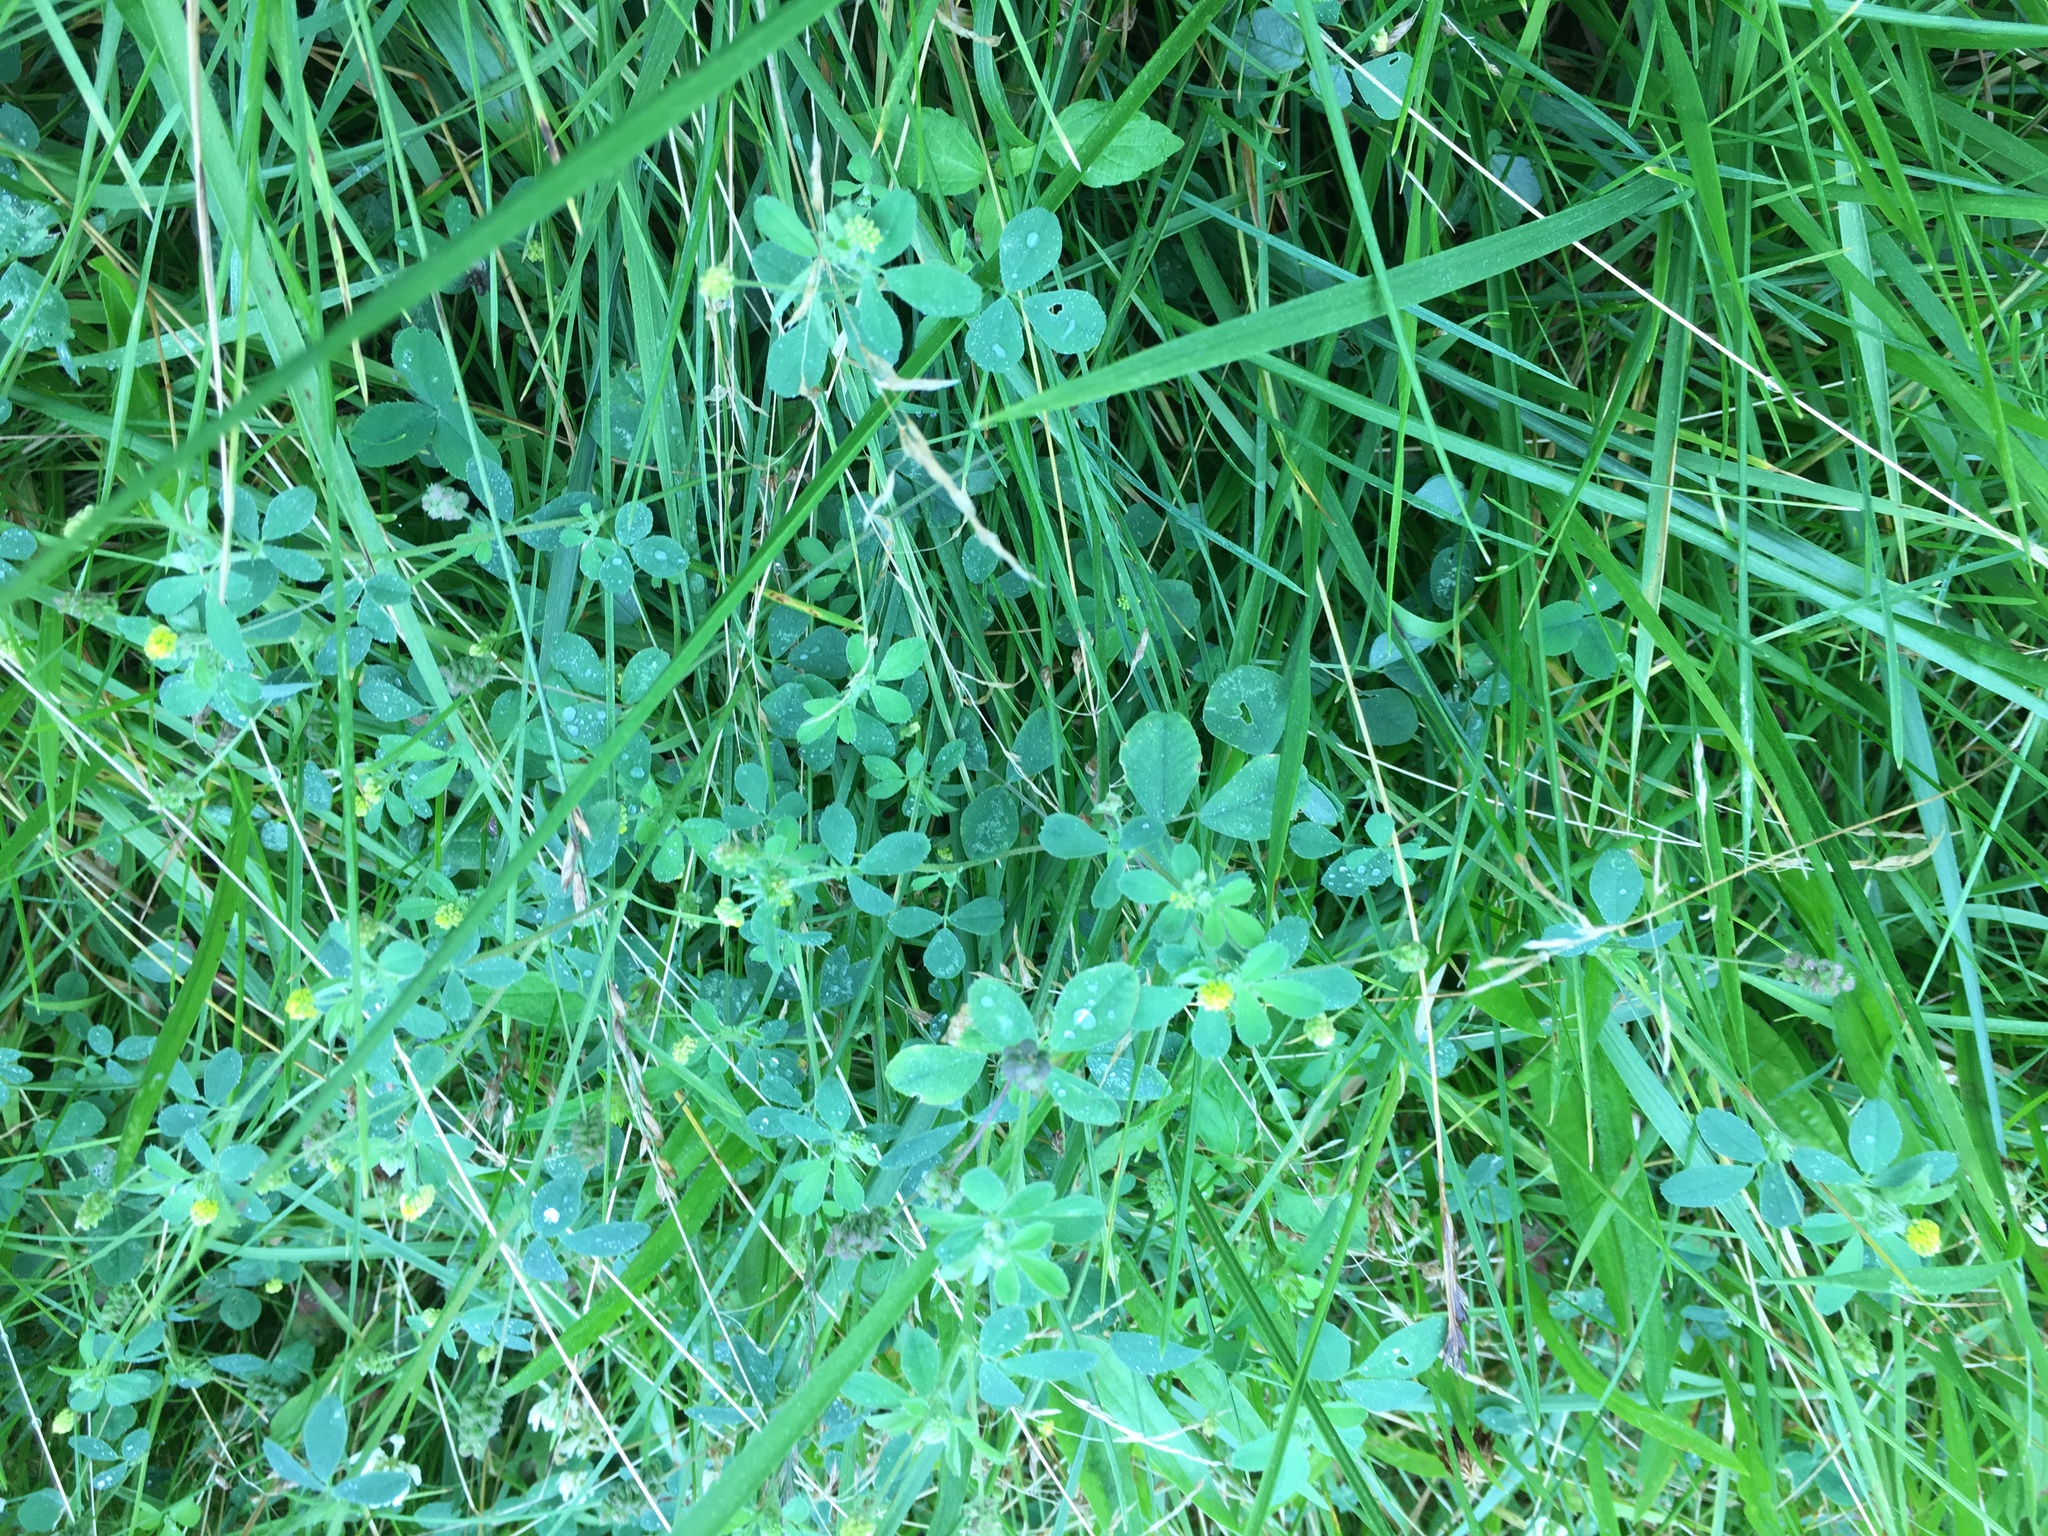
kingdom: Plantae
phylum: Tracheophyta
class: Magnoliopsida
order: Fabales
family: Fabaceae
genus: Medicago
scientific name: Medicago lupulina
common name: Black medick
